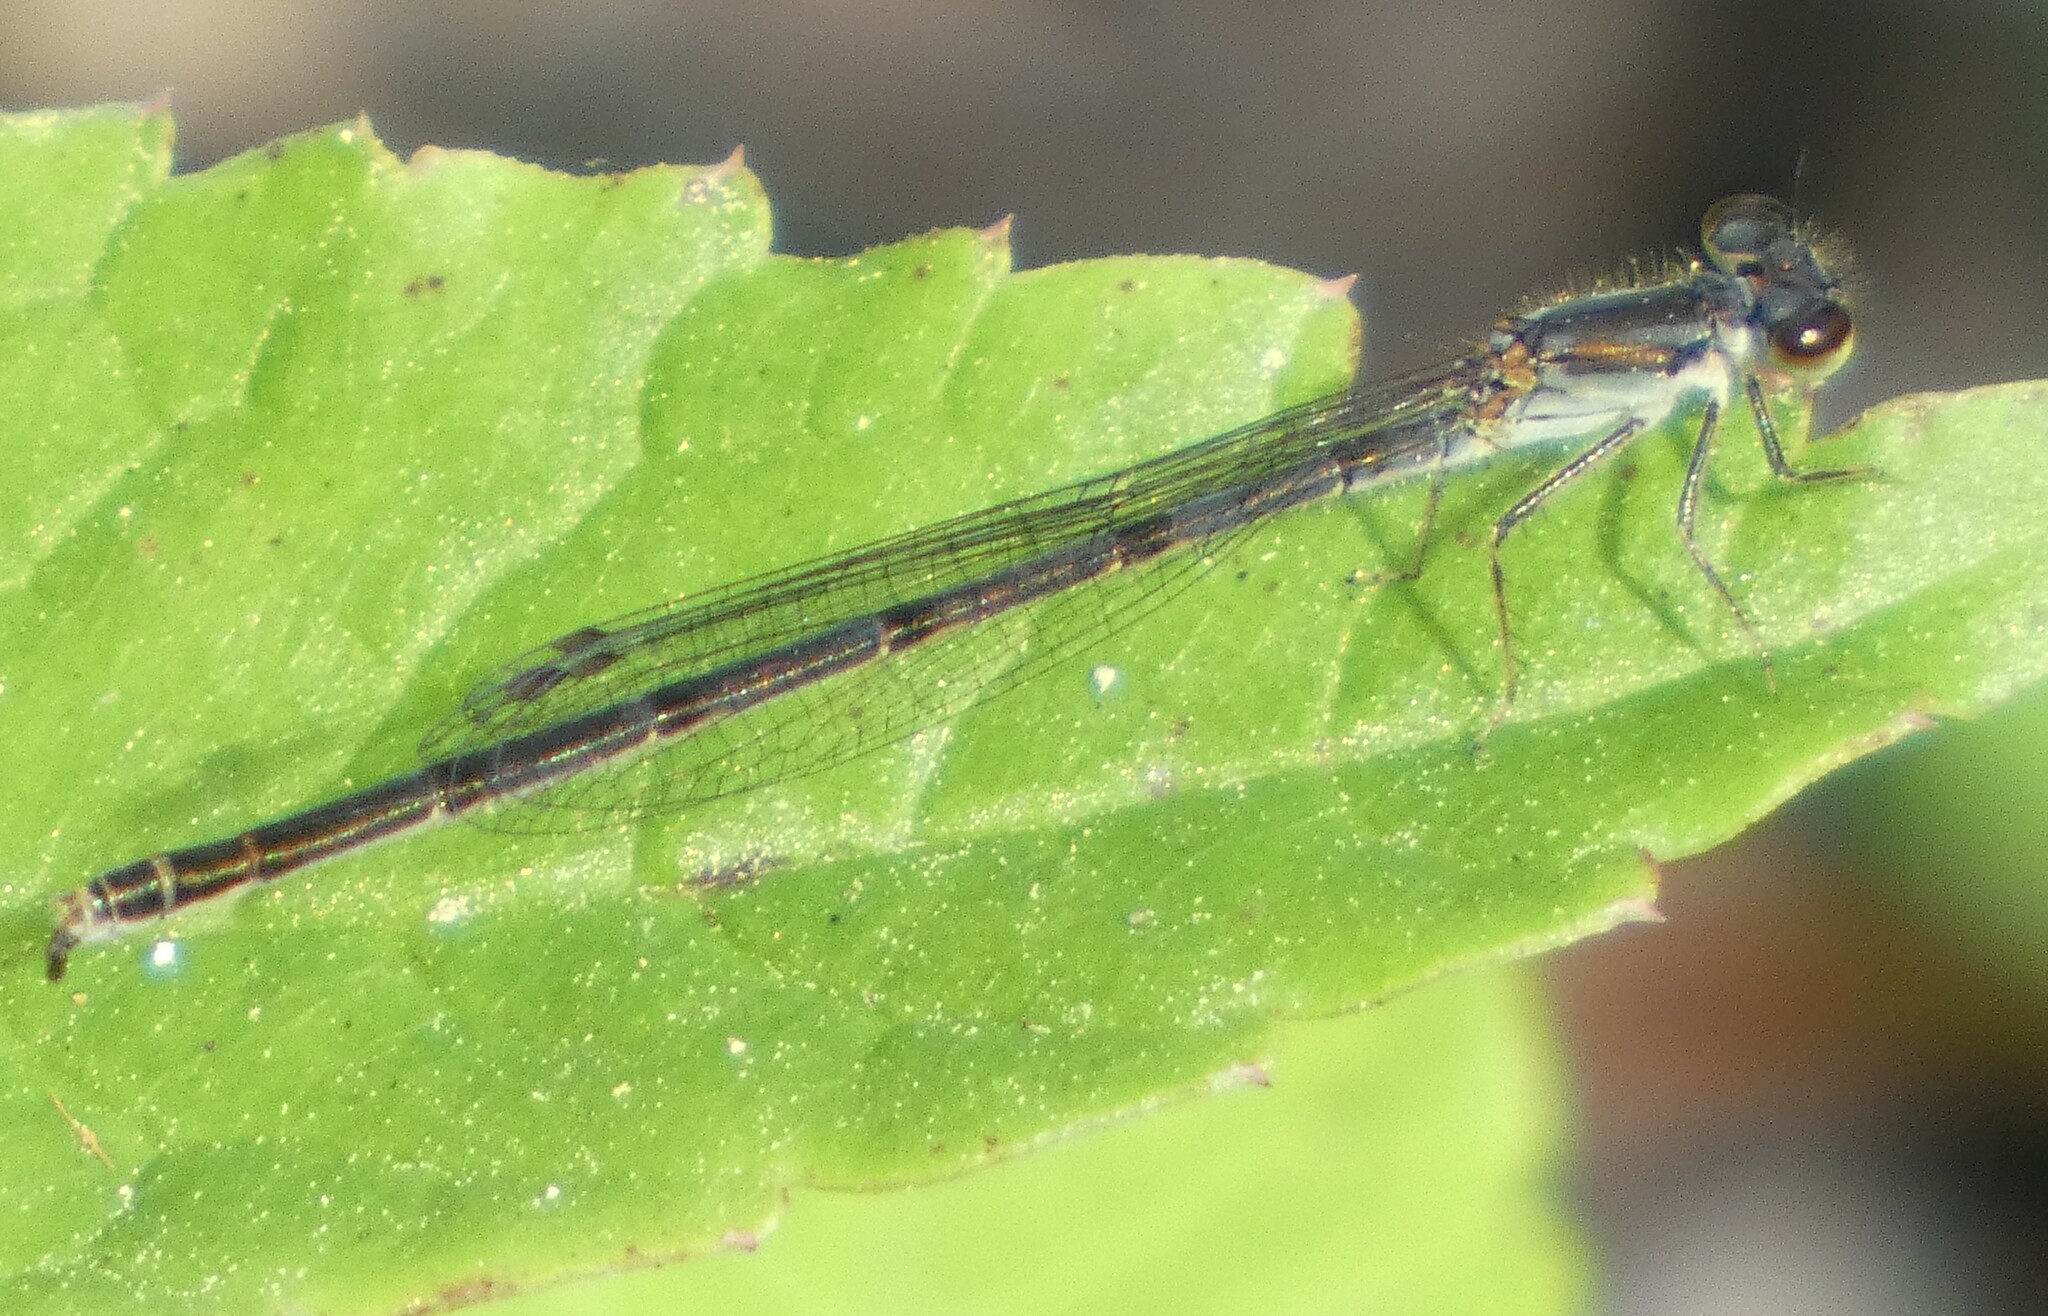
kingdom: Animalia
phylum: Arthropoda
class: Insecta
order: Odonata
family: Coenagrionidae
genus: Ischnura
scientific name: Ischnura posita
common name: Fragile forktail
